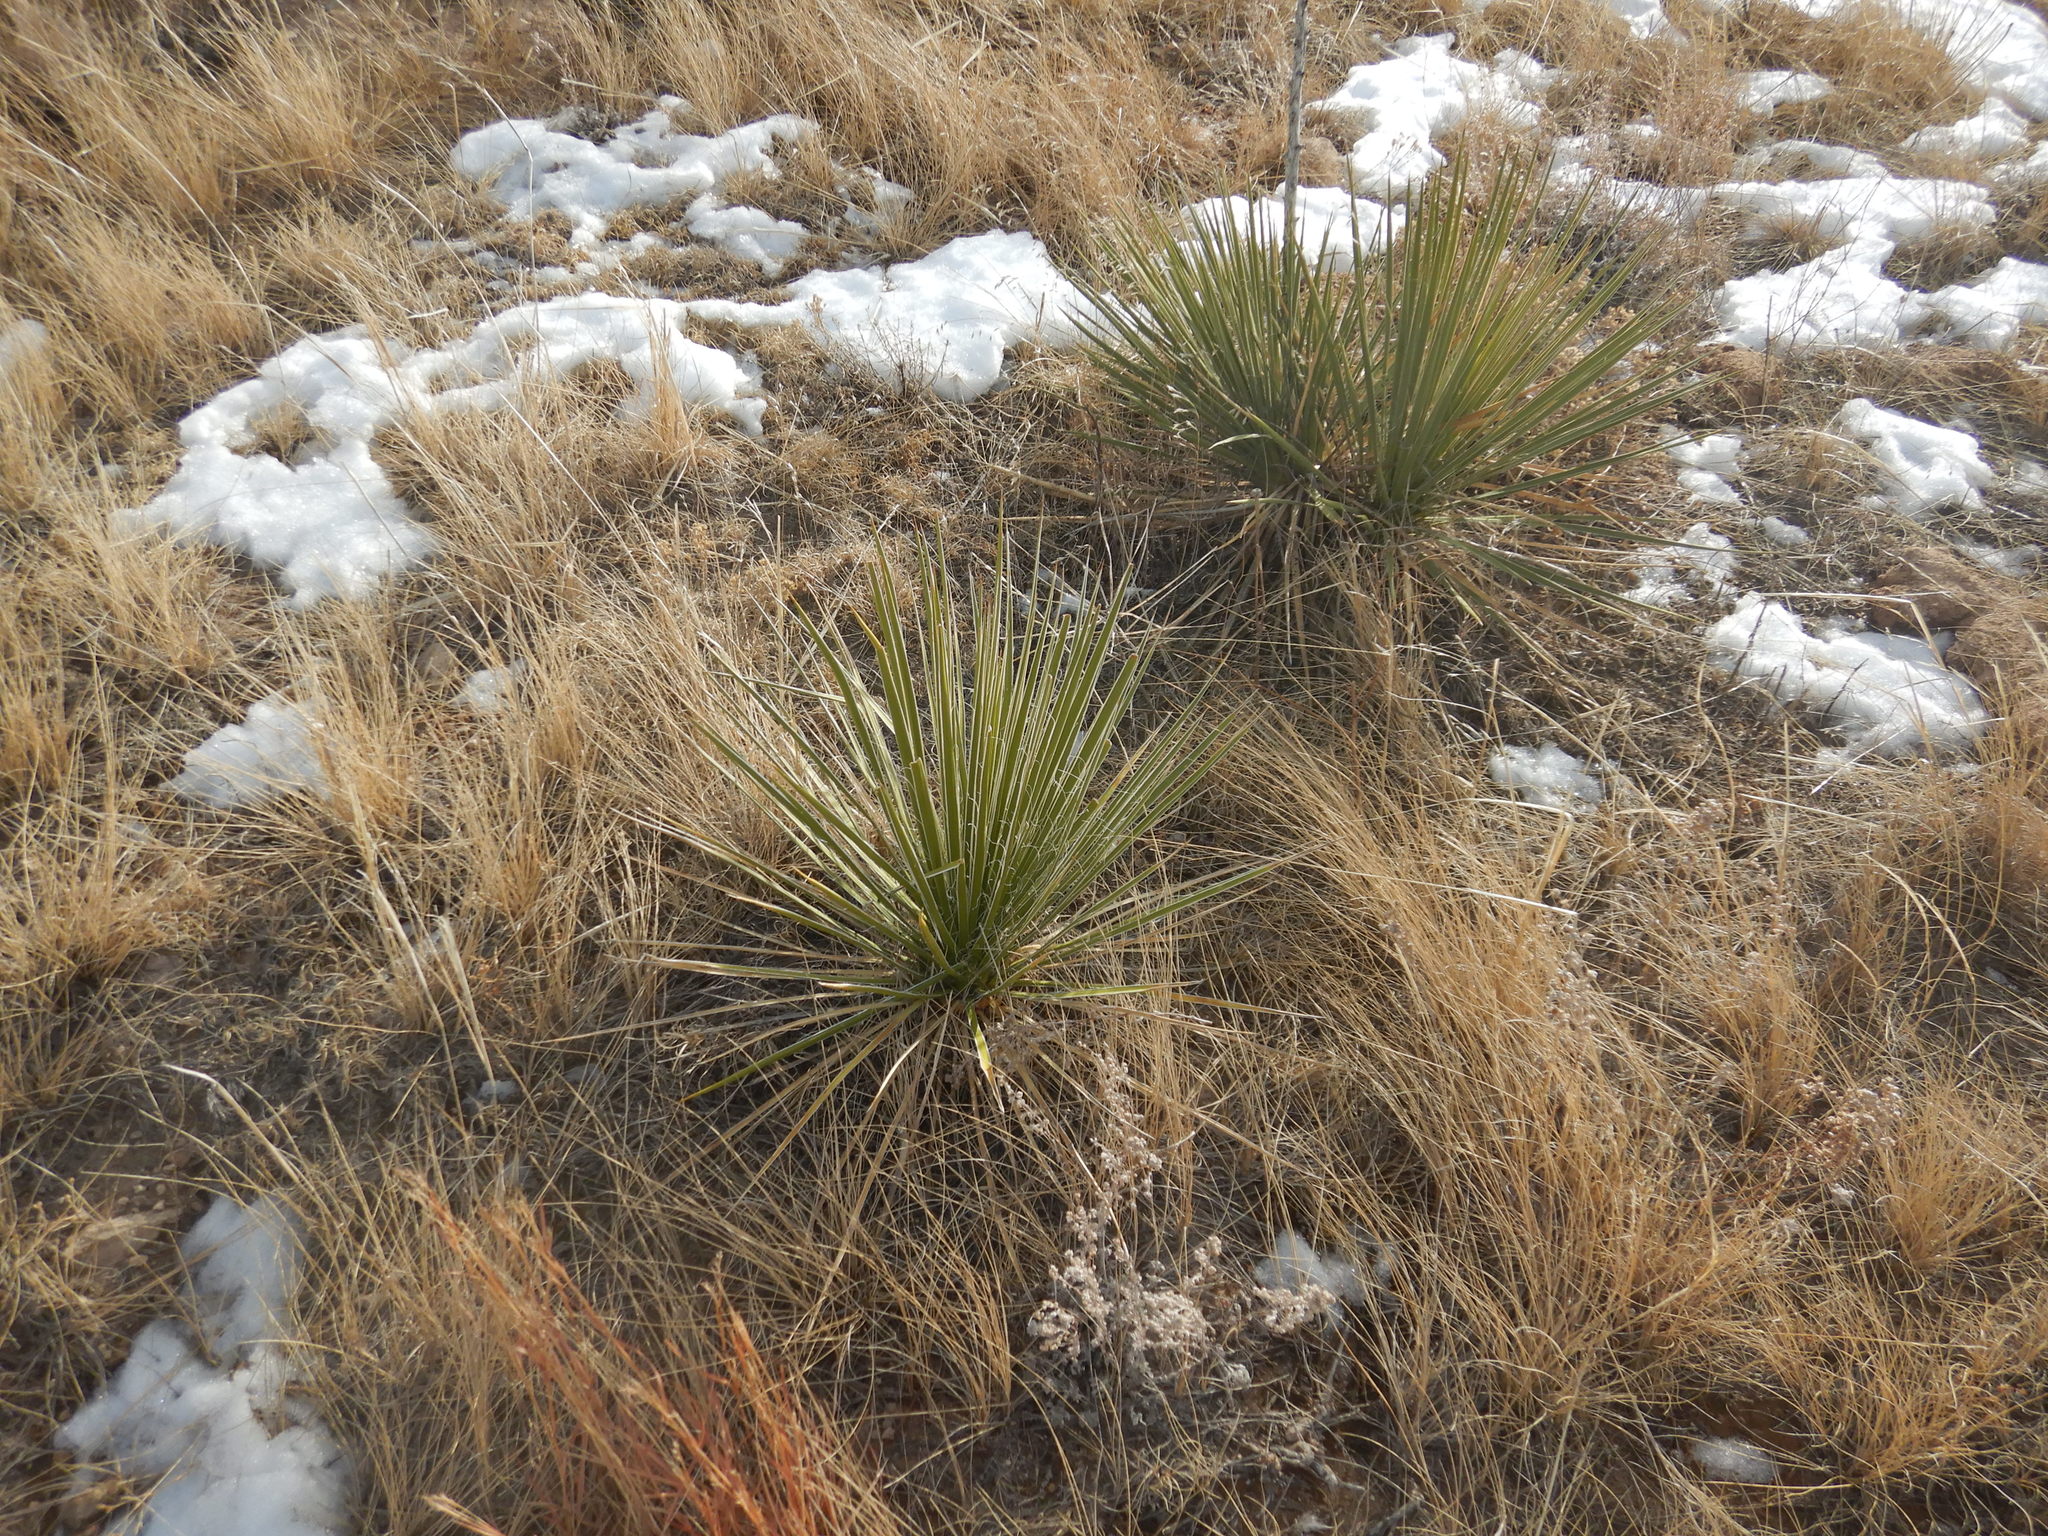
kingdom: Plantae
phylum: Tracheophyta
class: Liliopsida
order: Asparagales
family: Asparagaceae
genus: Yucca
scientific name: Yucca glauca
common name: Great plains yucca
